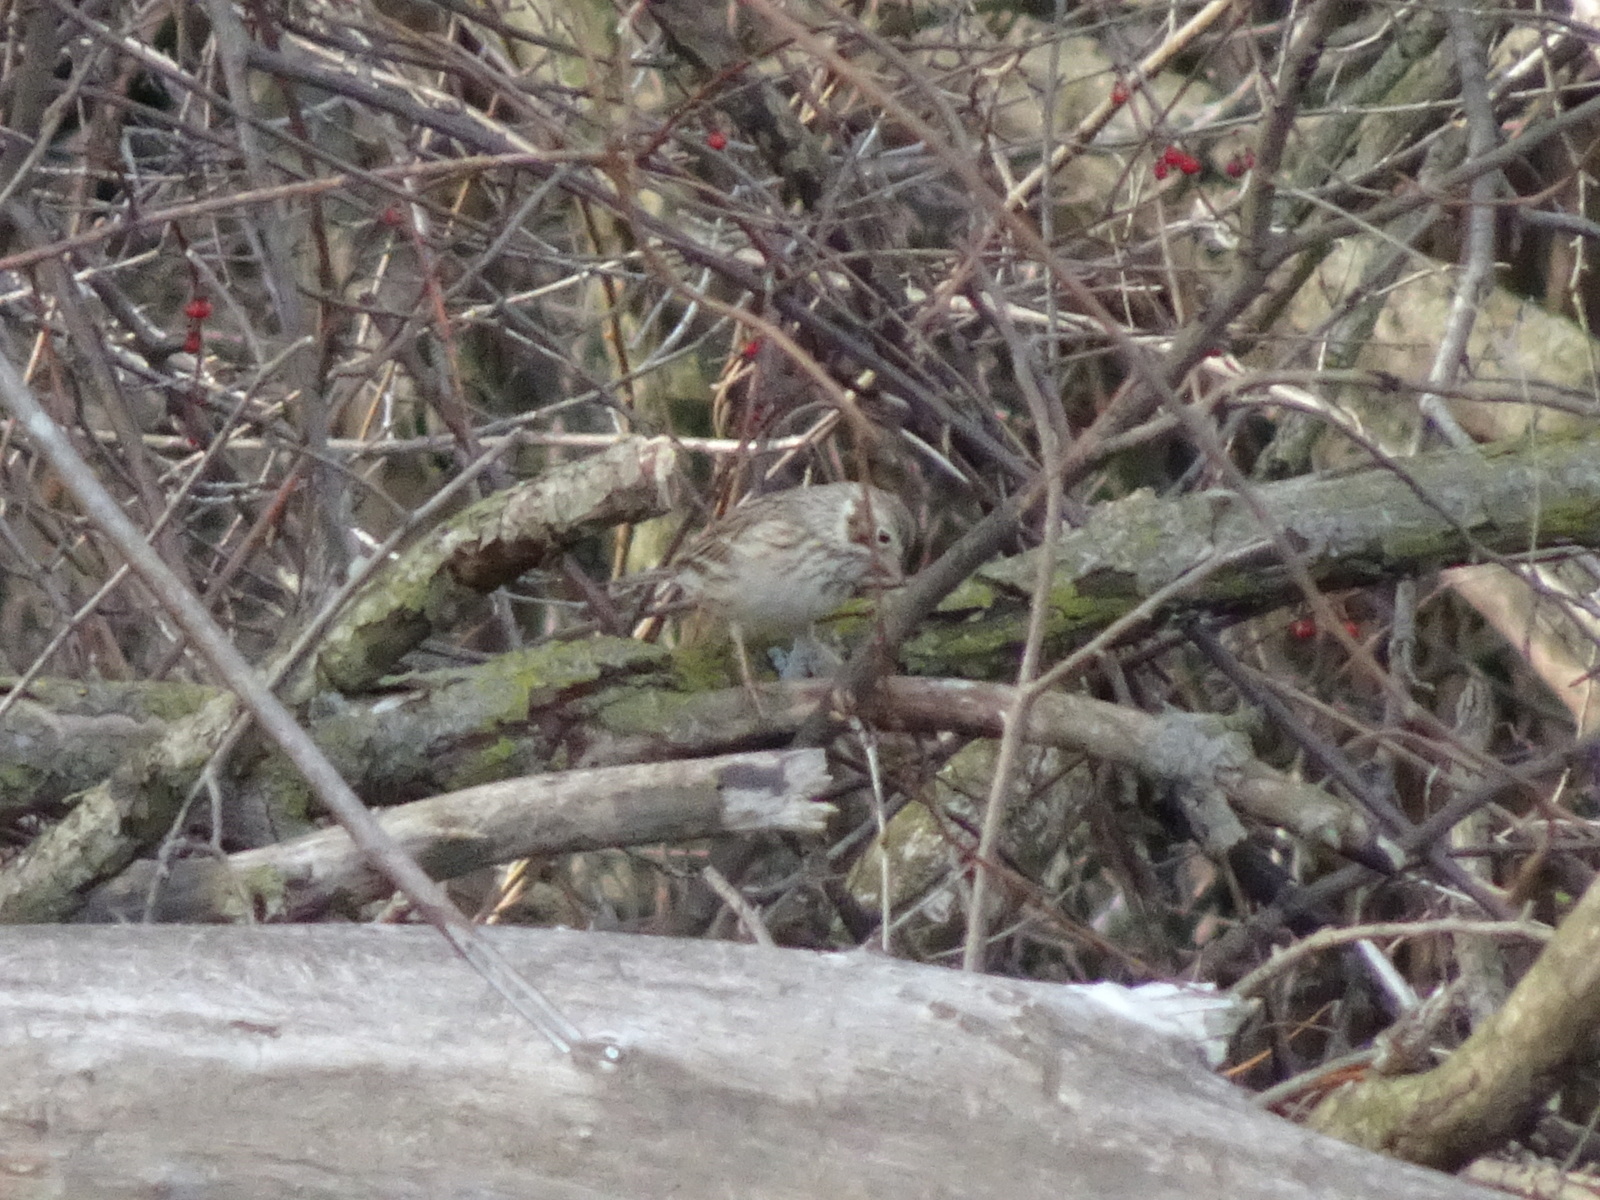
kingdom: Animalia
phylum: Chordata
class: Aves
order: Passeriformes
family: Passerellidae
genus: Pooecetes
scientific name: Pooecetes gramineus
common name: Vesper sparrow
